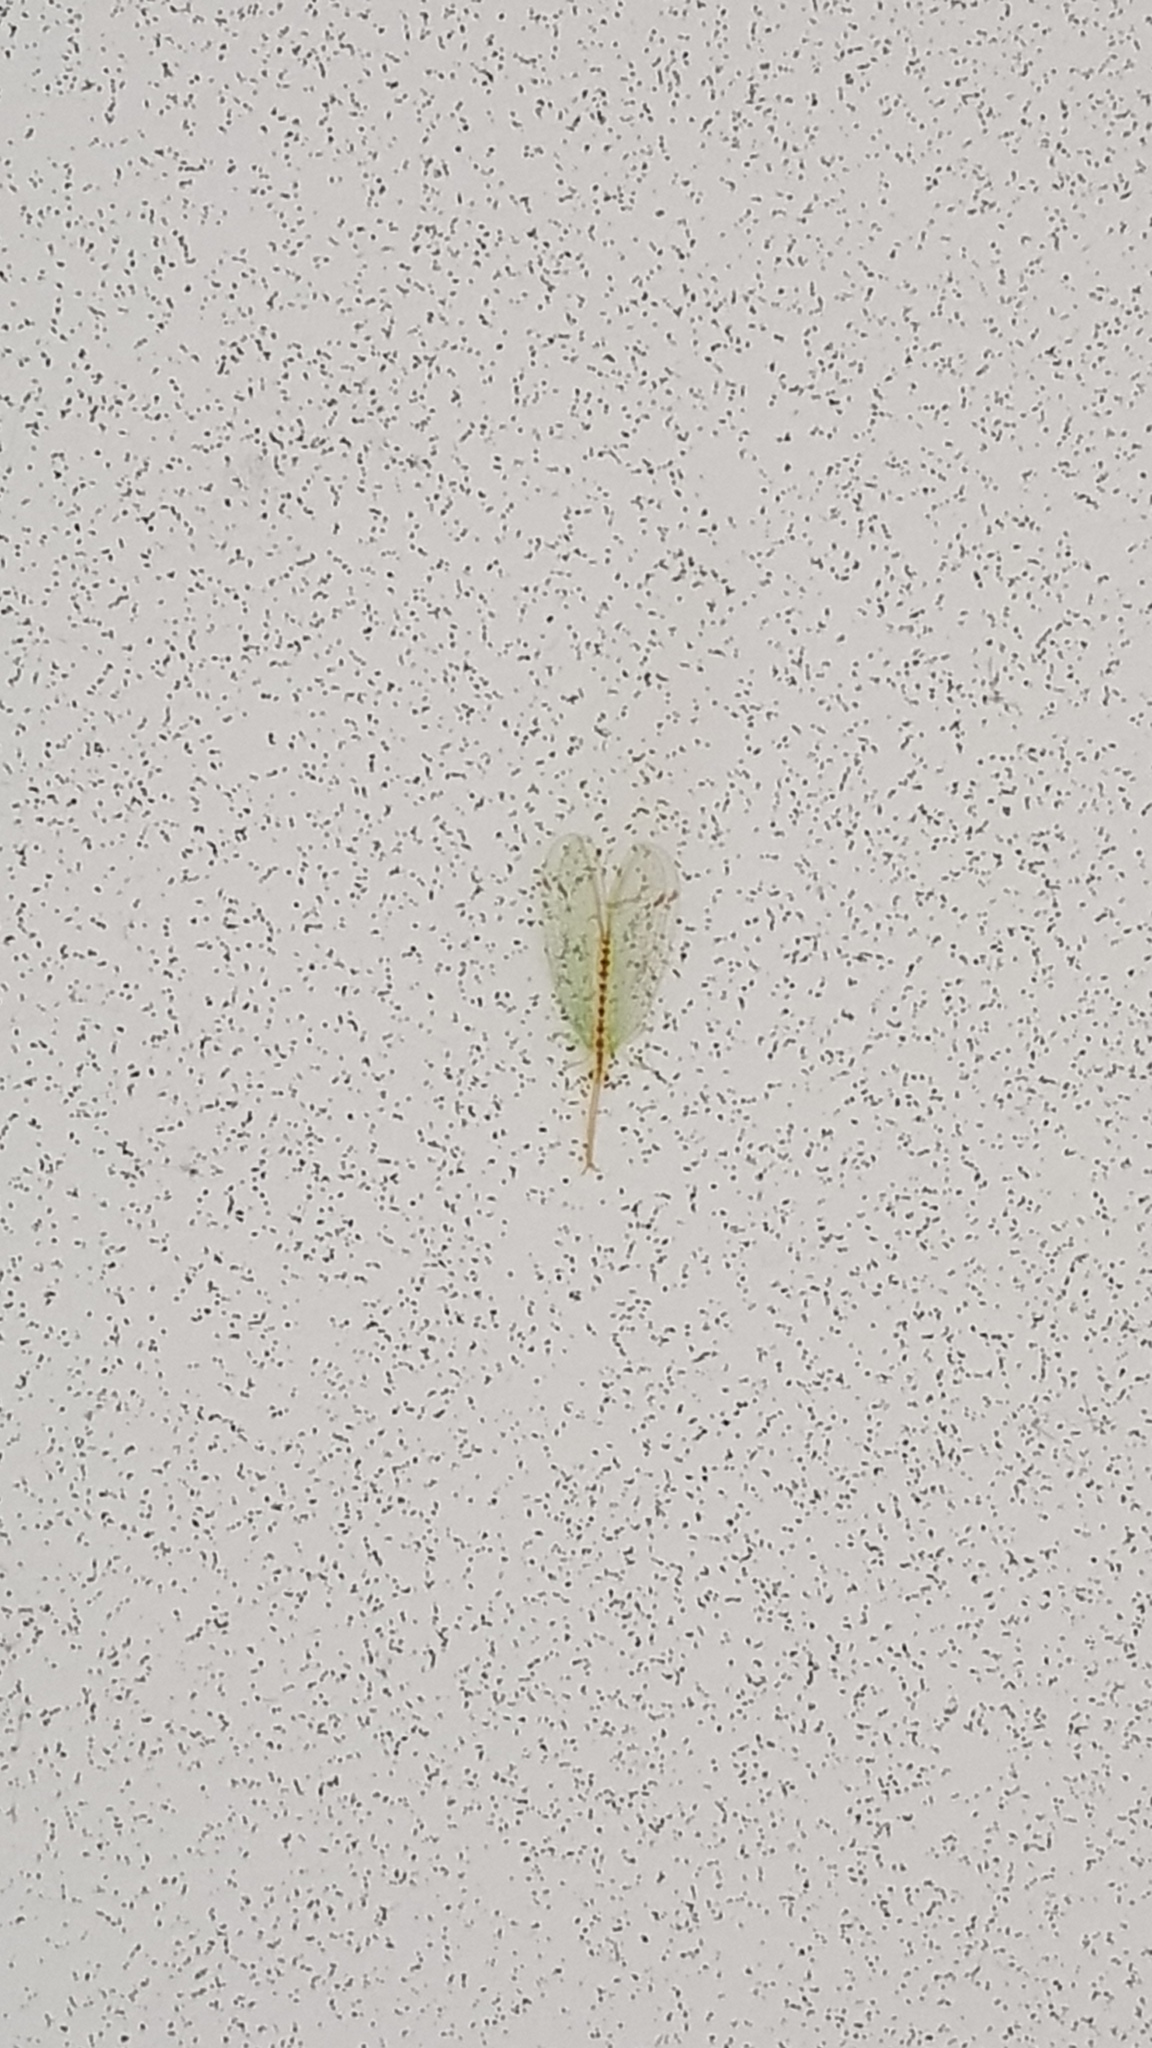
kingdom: Animalia
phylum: Arthropoda
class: Insecta
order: Neuroptera
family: Nymphidae
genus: Norfolius
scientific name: Norfolius howensis
